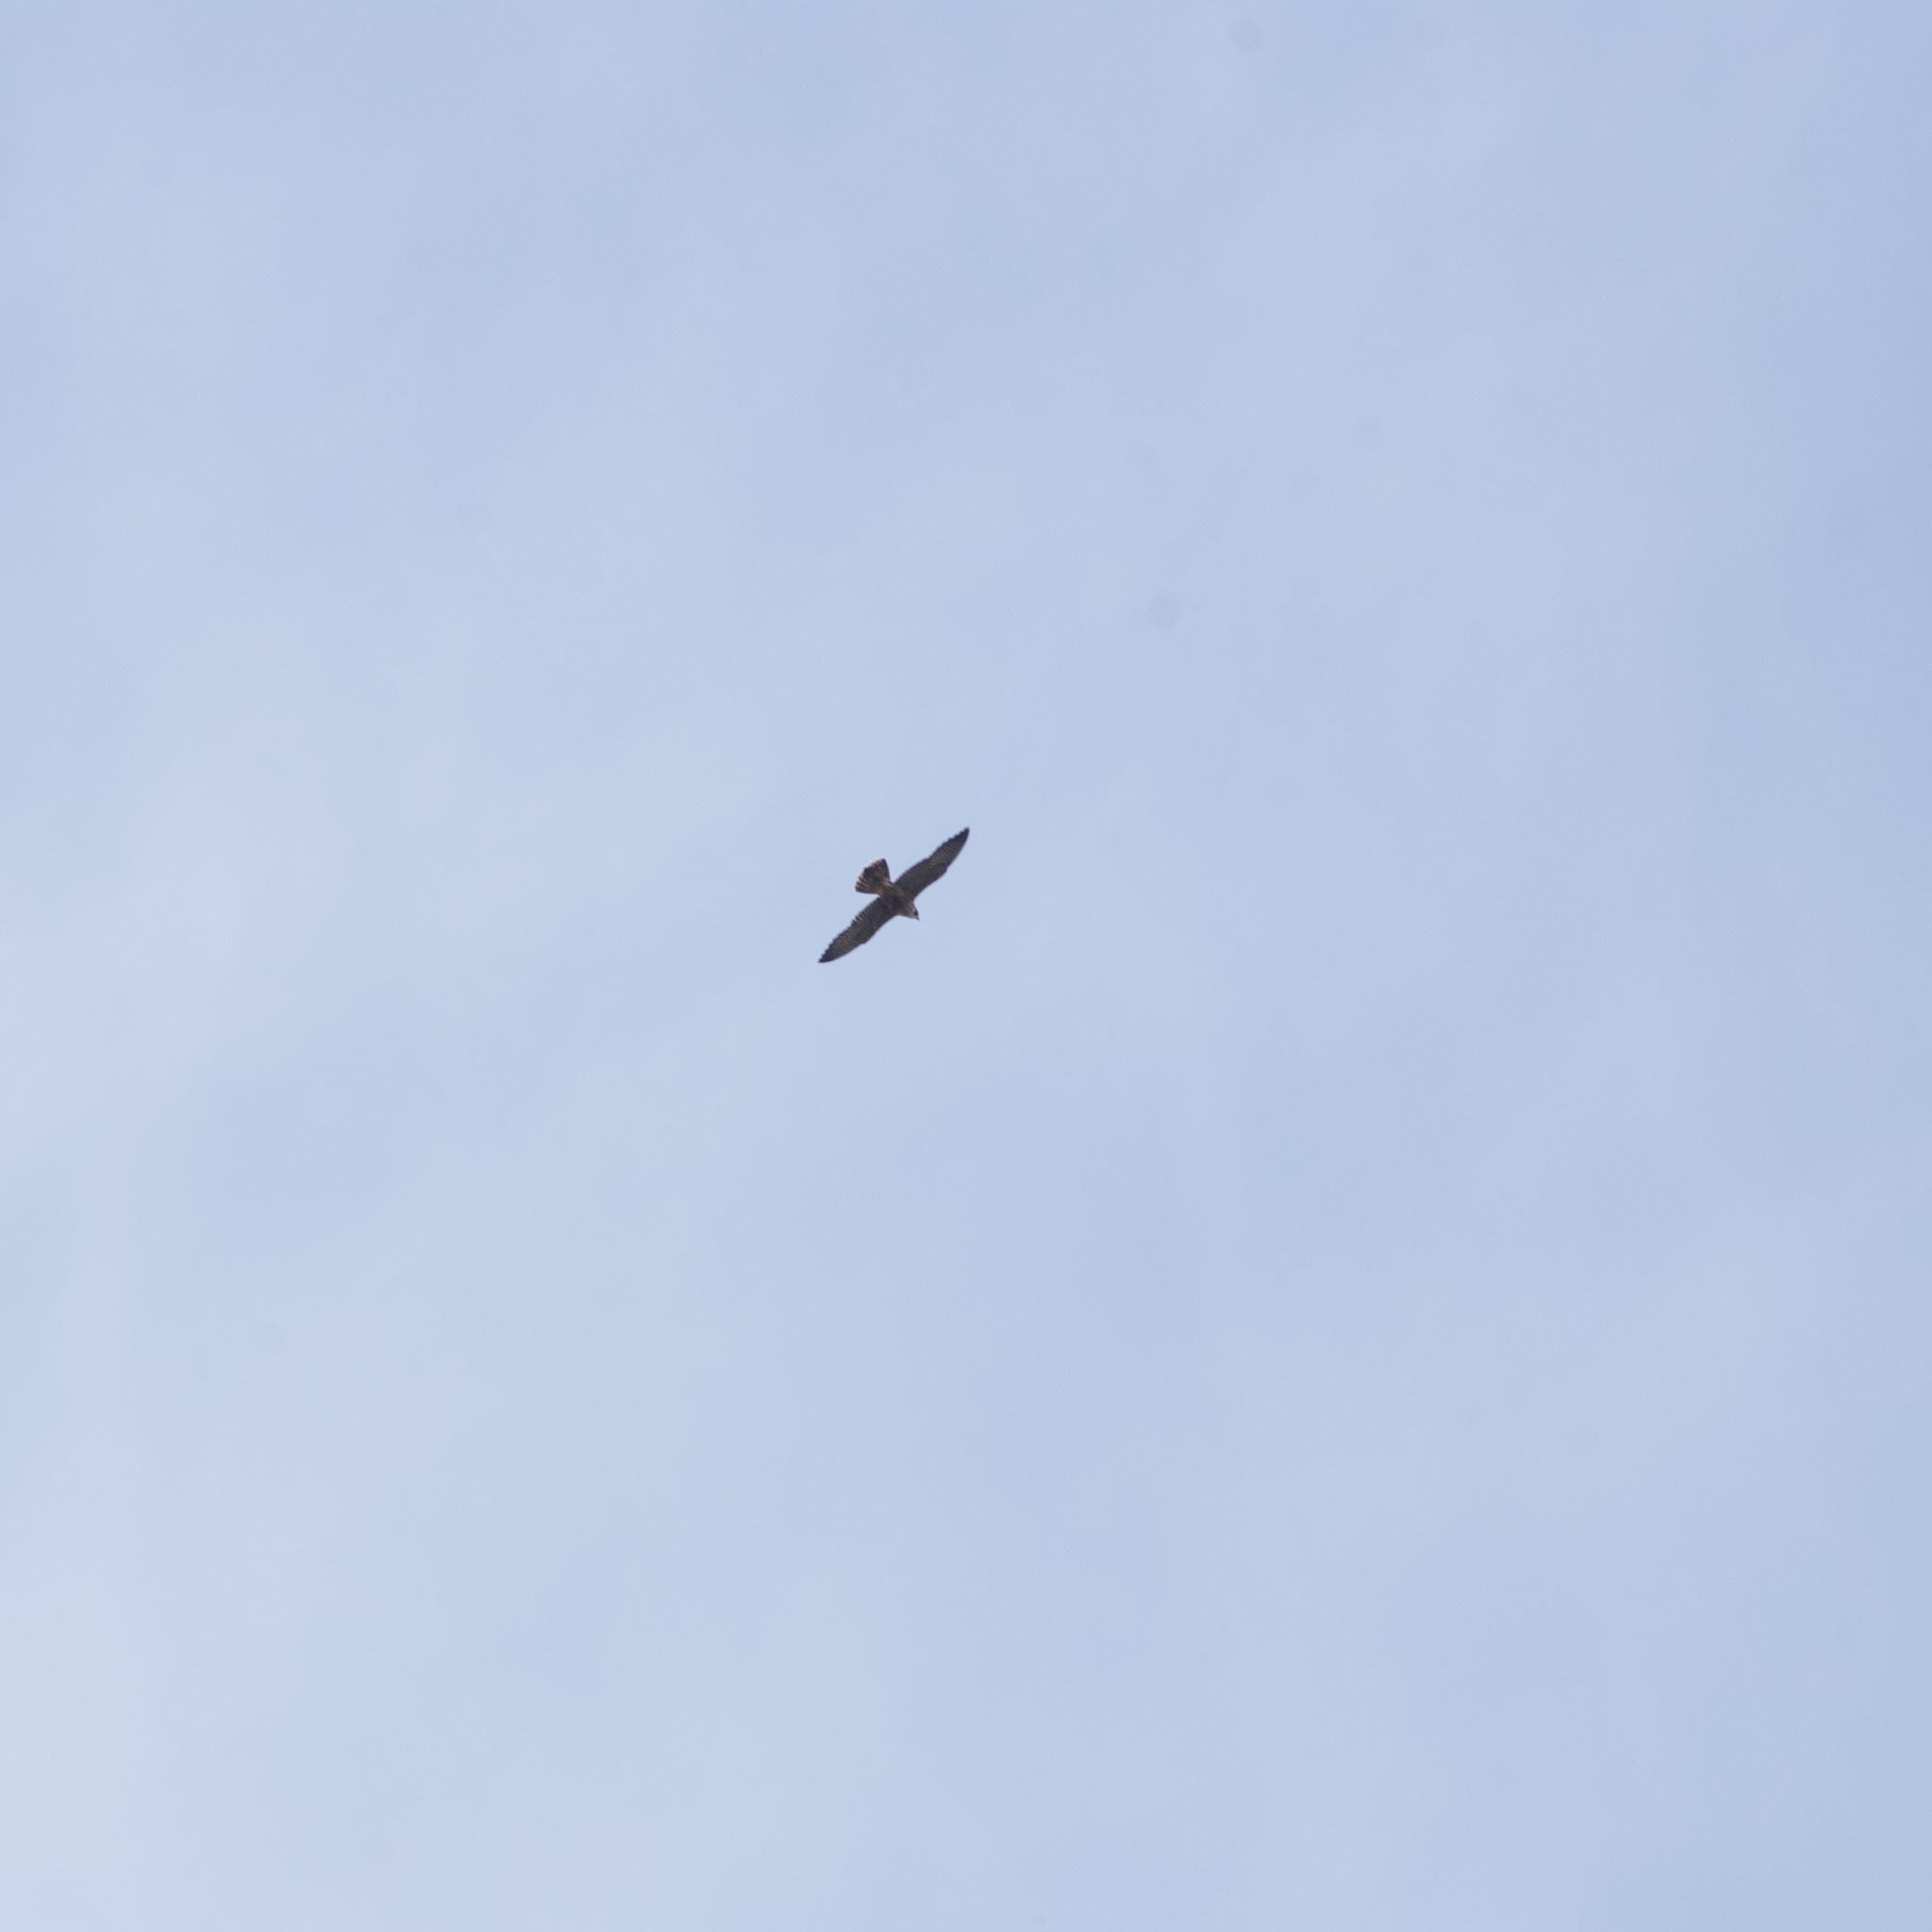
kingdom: Animalia
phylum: Chordata
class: Aves
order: Falconiformes
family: Falconidae
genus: Falco
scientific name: Falco peregrinus
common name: Peregrine falcon
